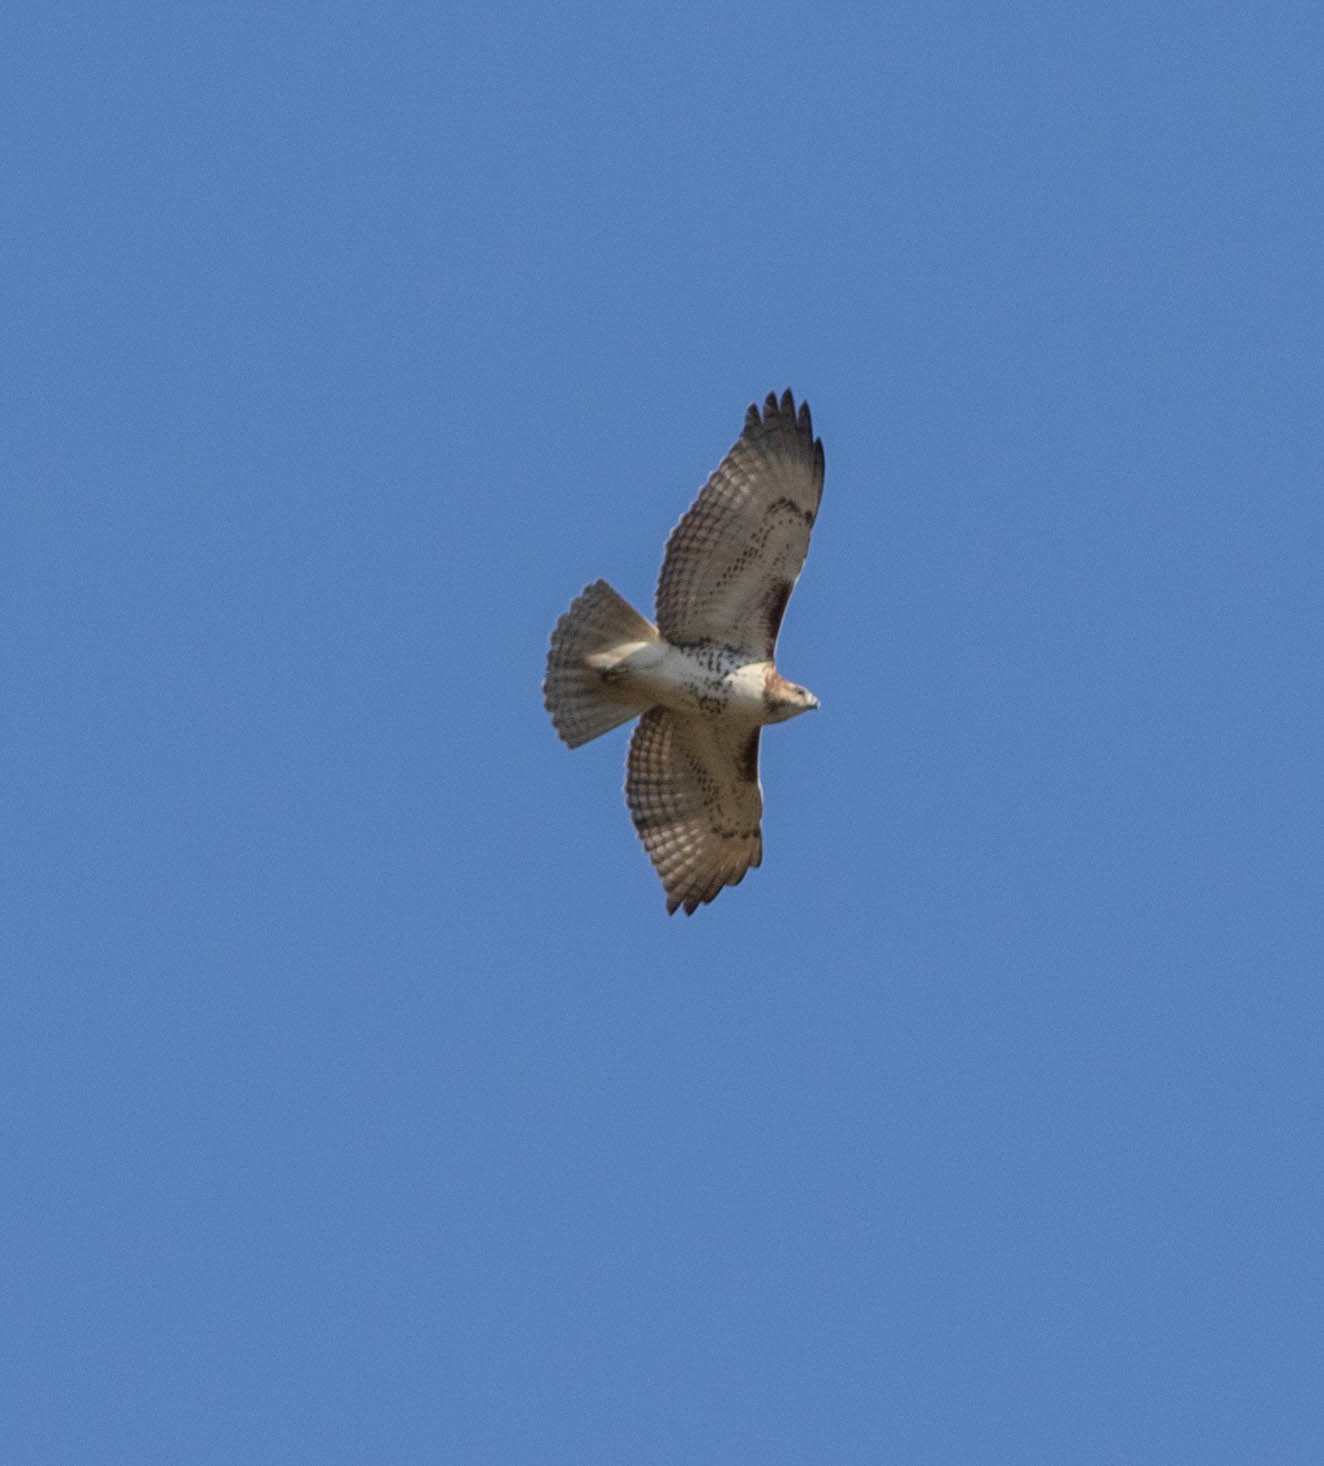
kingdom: Animalia
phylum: Chordata
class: Aves
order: Accipitriformes
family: Accipitridae
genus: Buteo
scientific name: Buteo jamaicensis
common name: Red-tailed hawk
